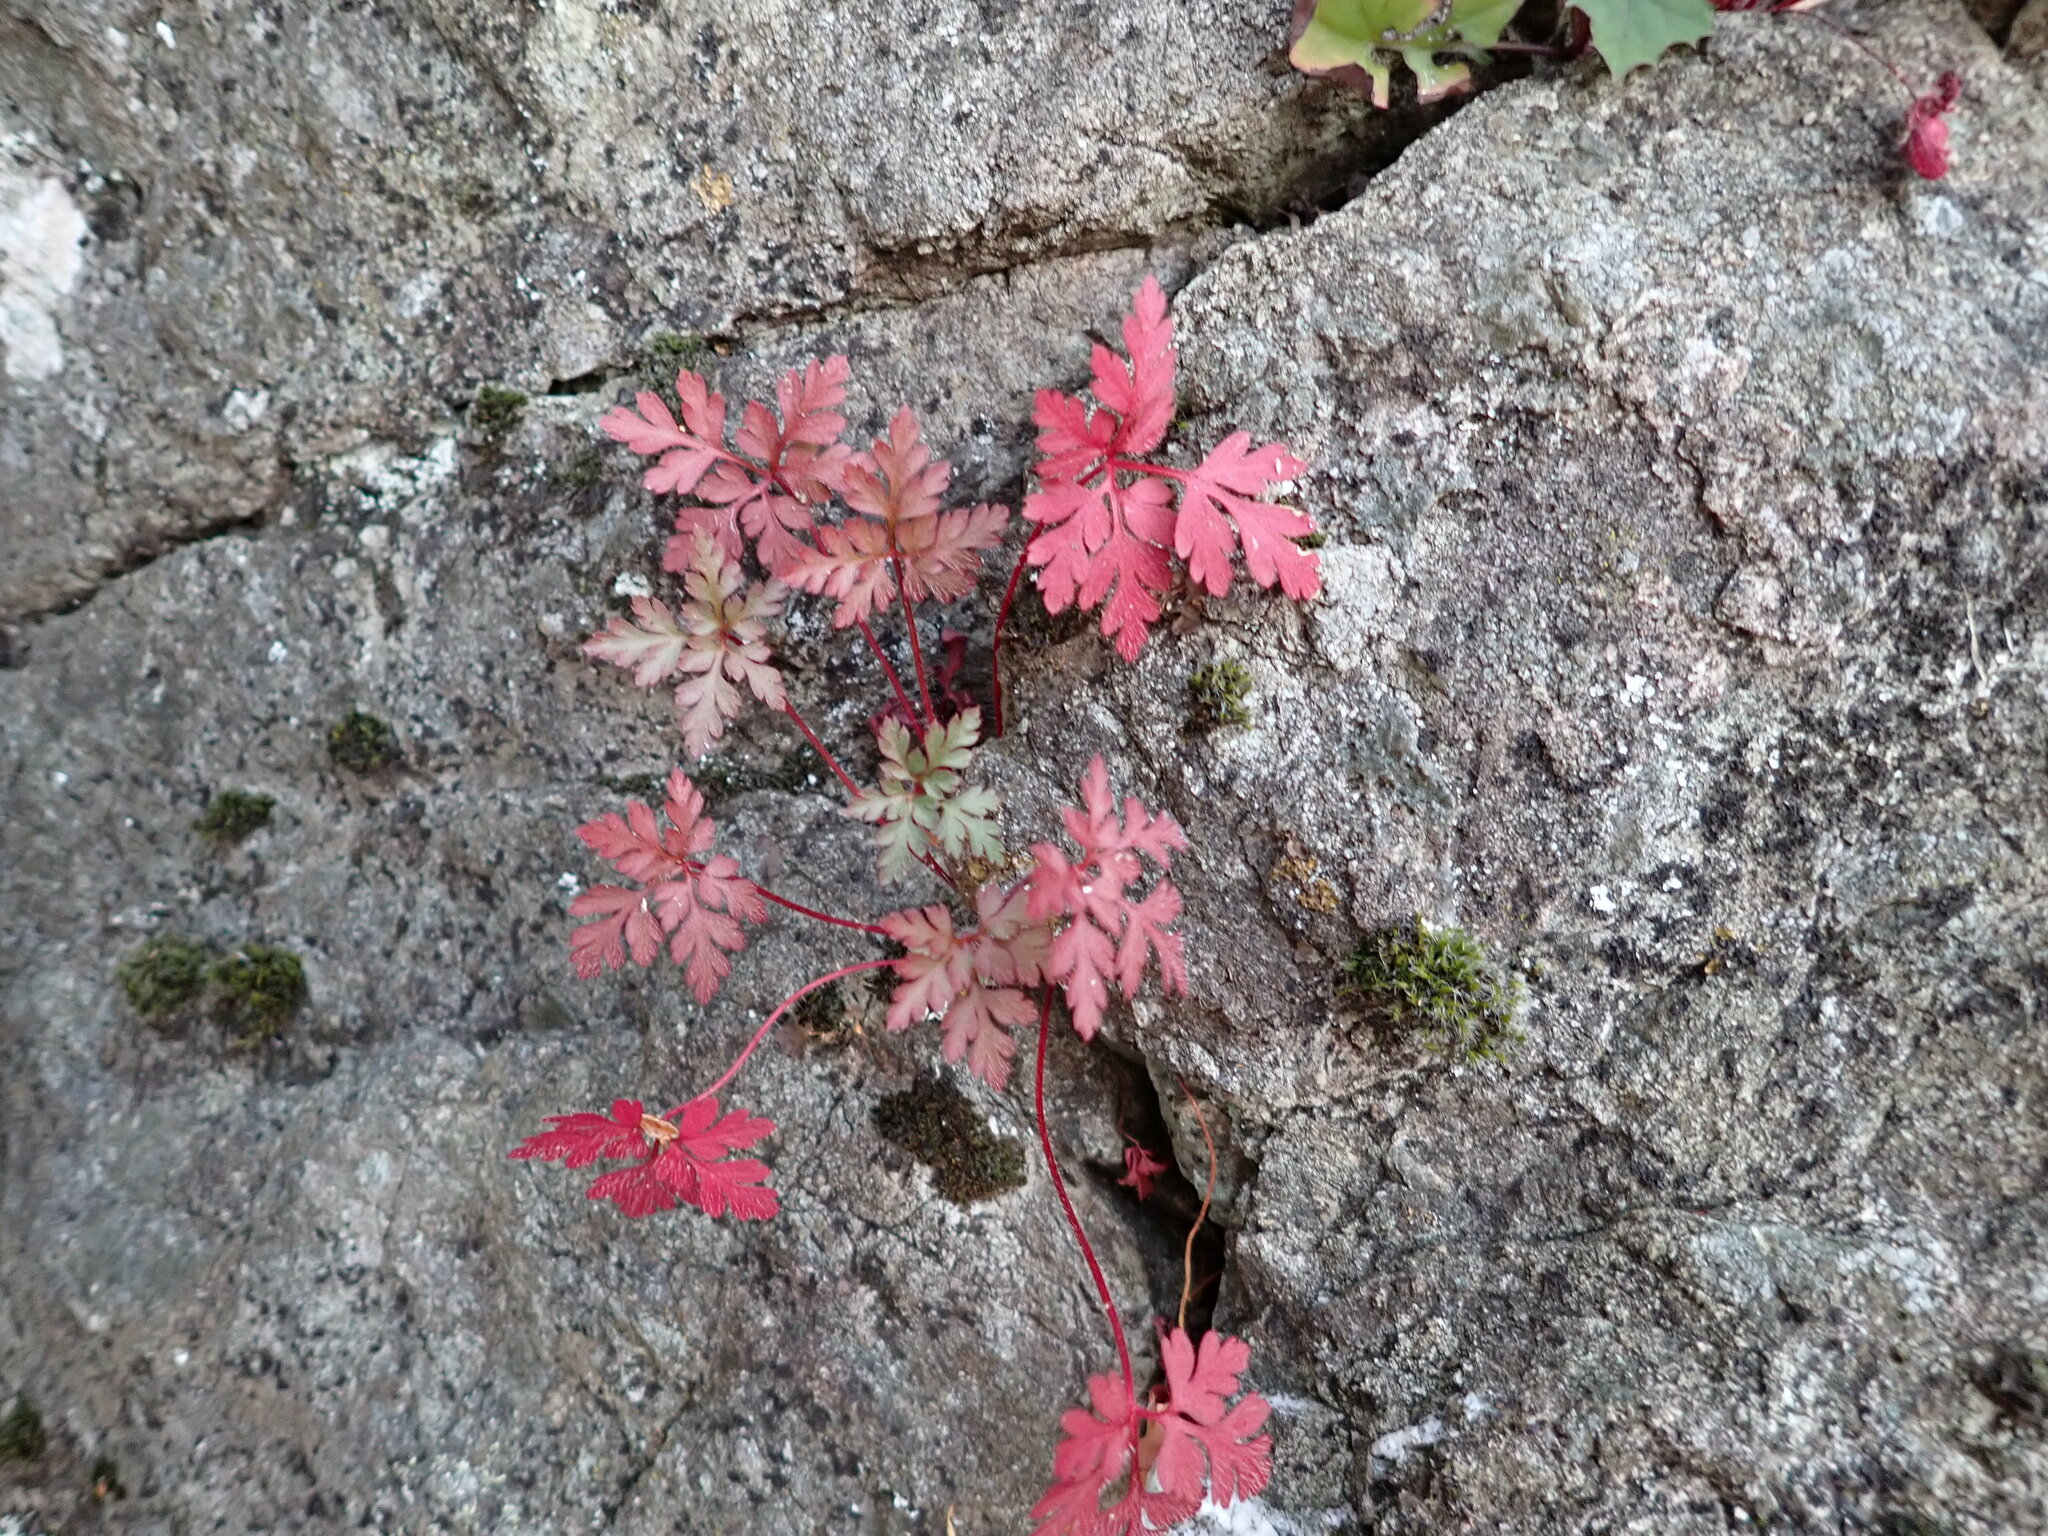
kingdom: Plantae
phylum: Tracheophyta
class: Magnoliopsida
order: Geraniales
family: Geraniaceae
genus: Geranium
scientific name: Geranium robertianum
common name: Herb-robert
